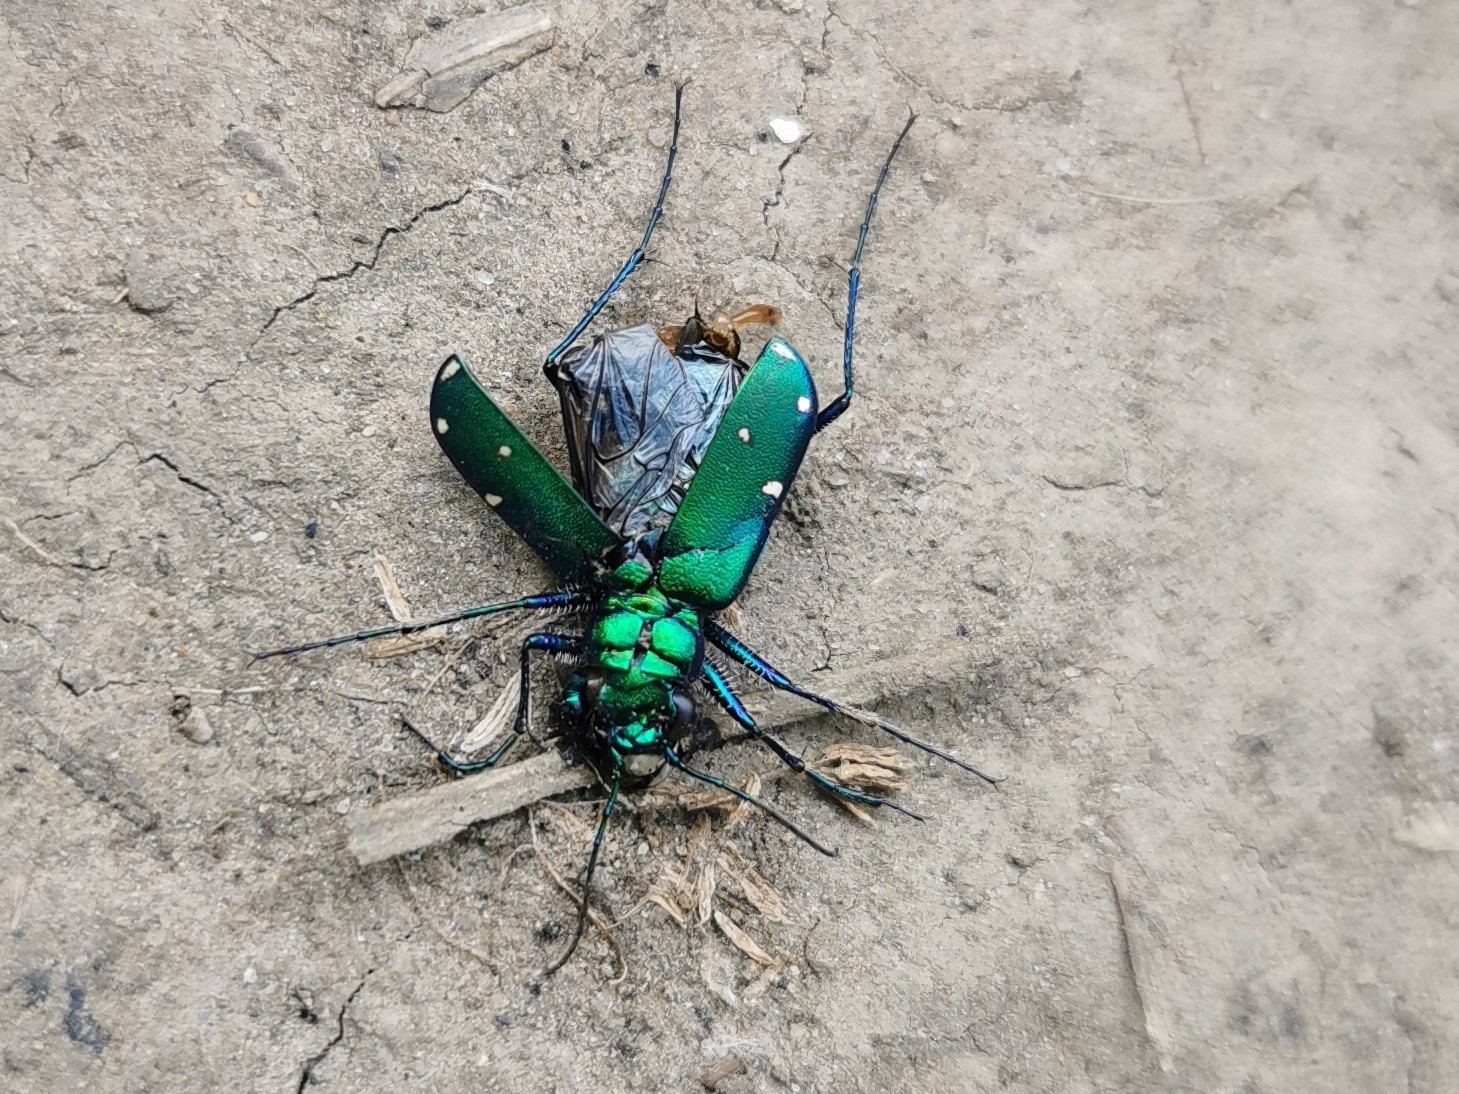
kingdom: Animalia
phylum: Arthropoda
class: Insecta
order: Coleoptera
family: Carabidae
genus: Cicindela
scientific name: Cicindela sexguttata
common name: Six-spotted tiger beetle
